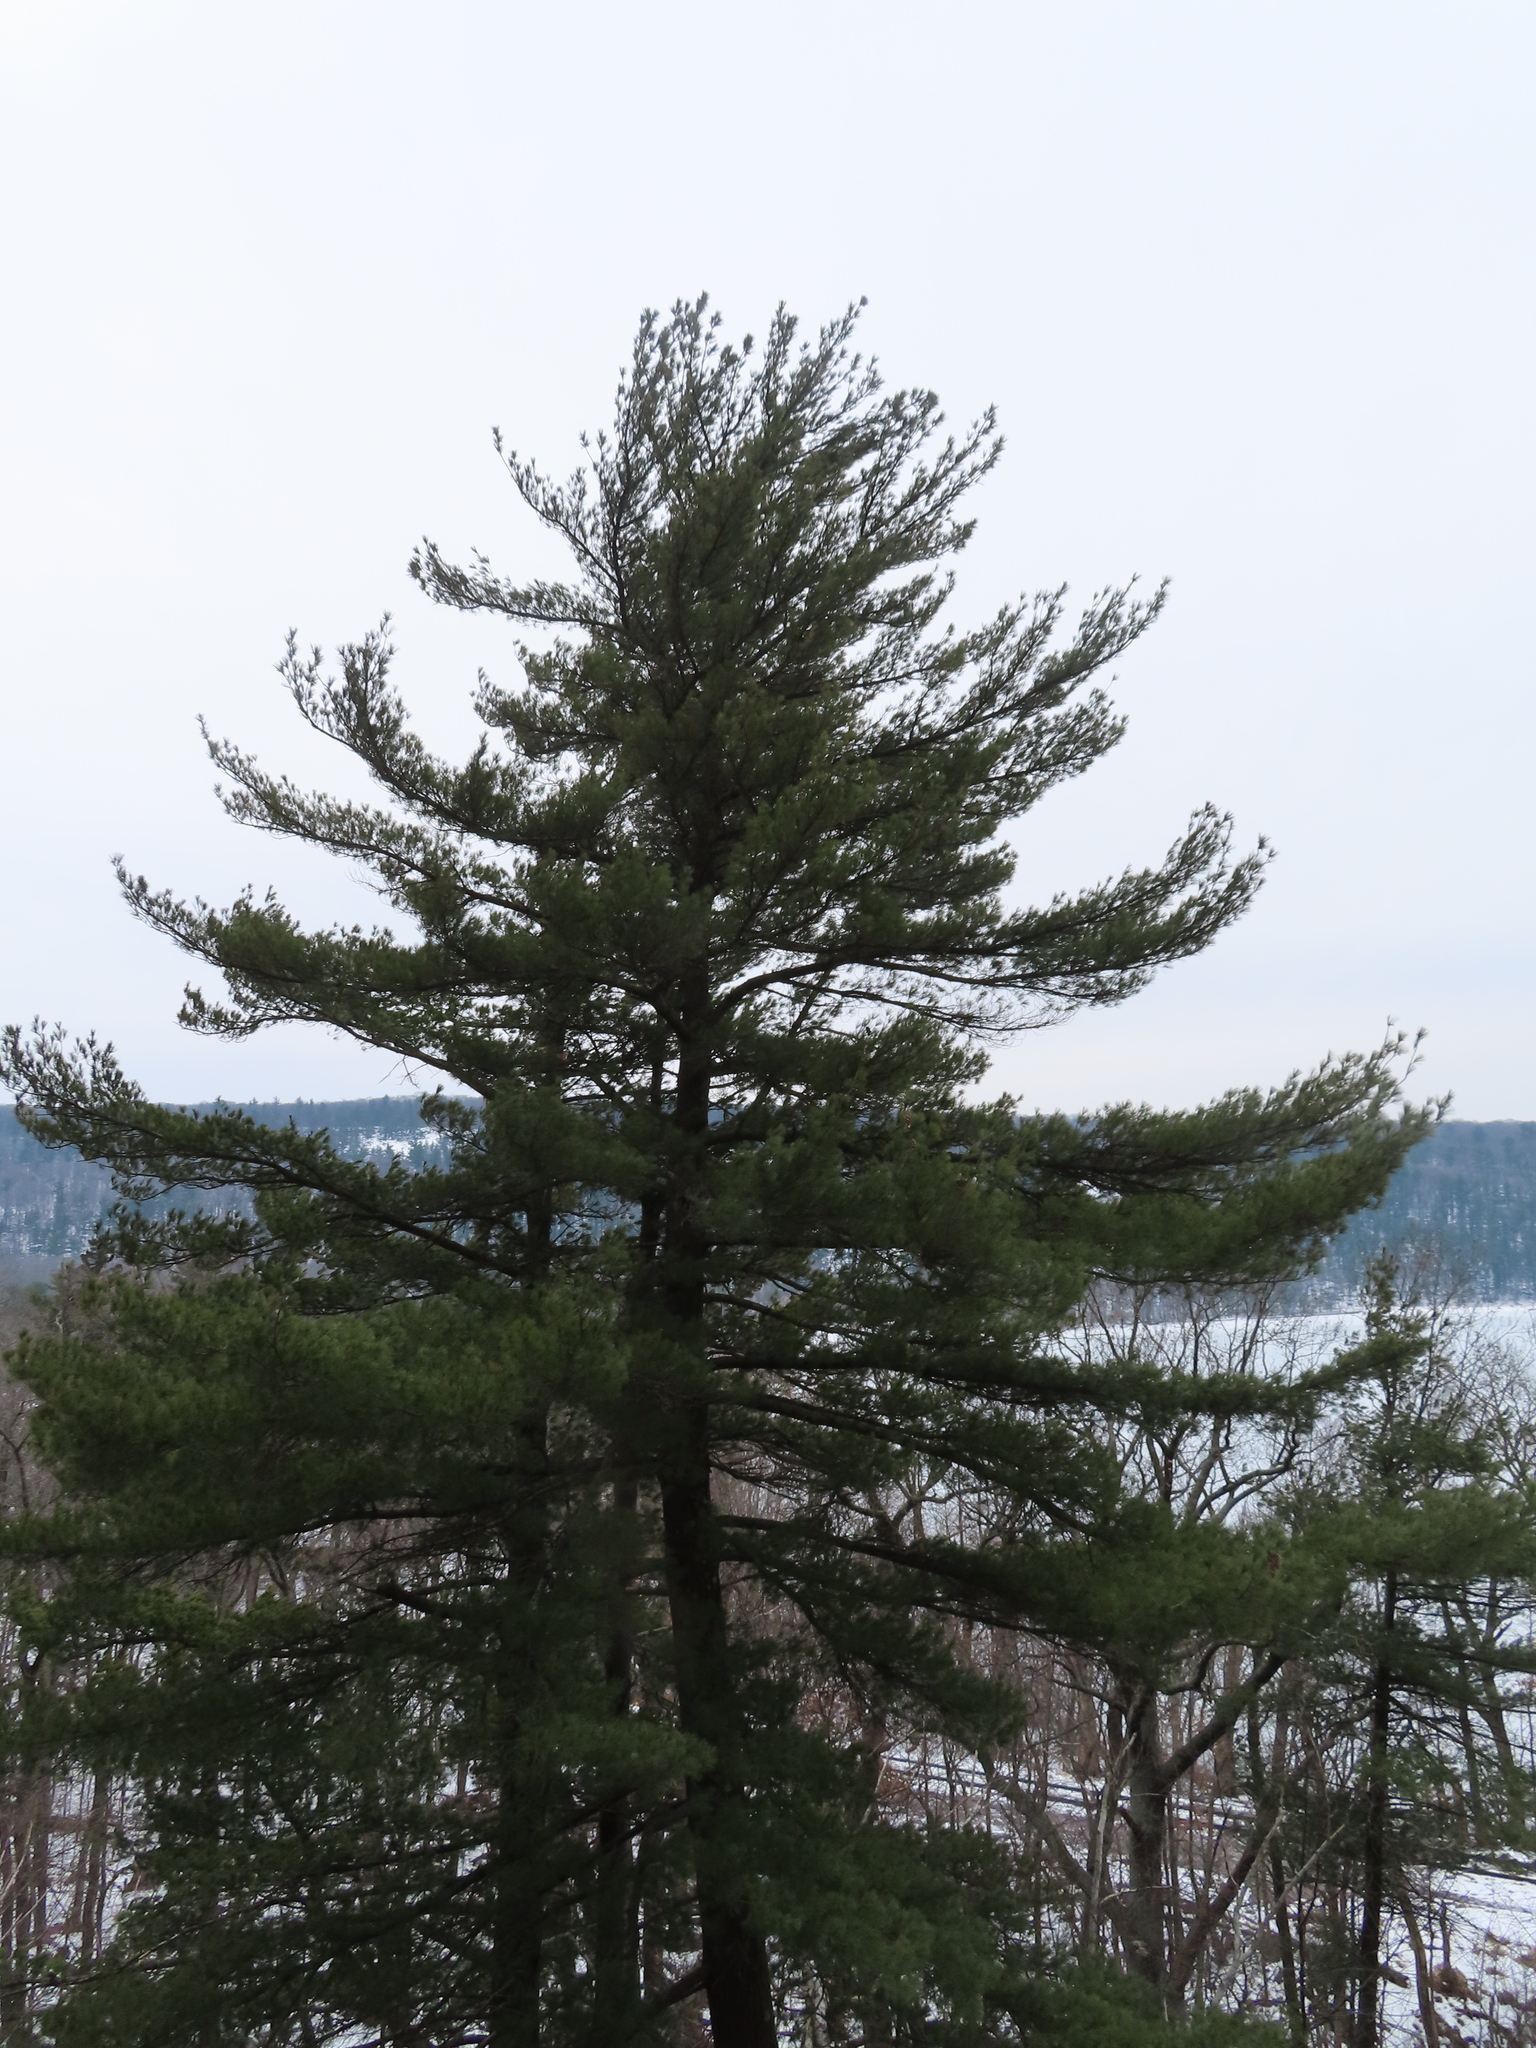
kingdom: Plantae
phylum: Tracheophyta
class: Pinopsida
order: Pinales
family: Pinaceae
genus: Pinus
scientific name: Pinus strobus
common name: Weymouth pine
